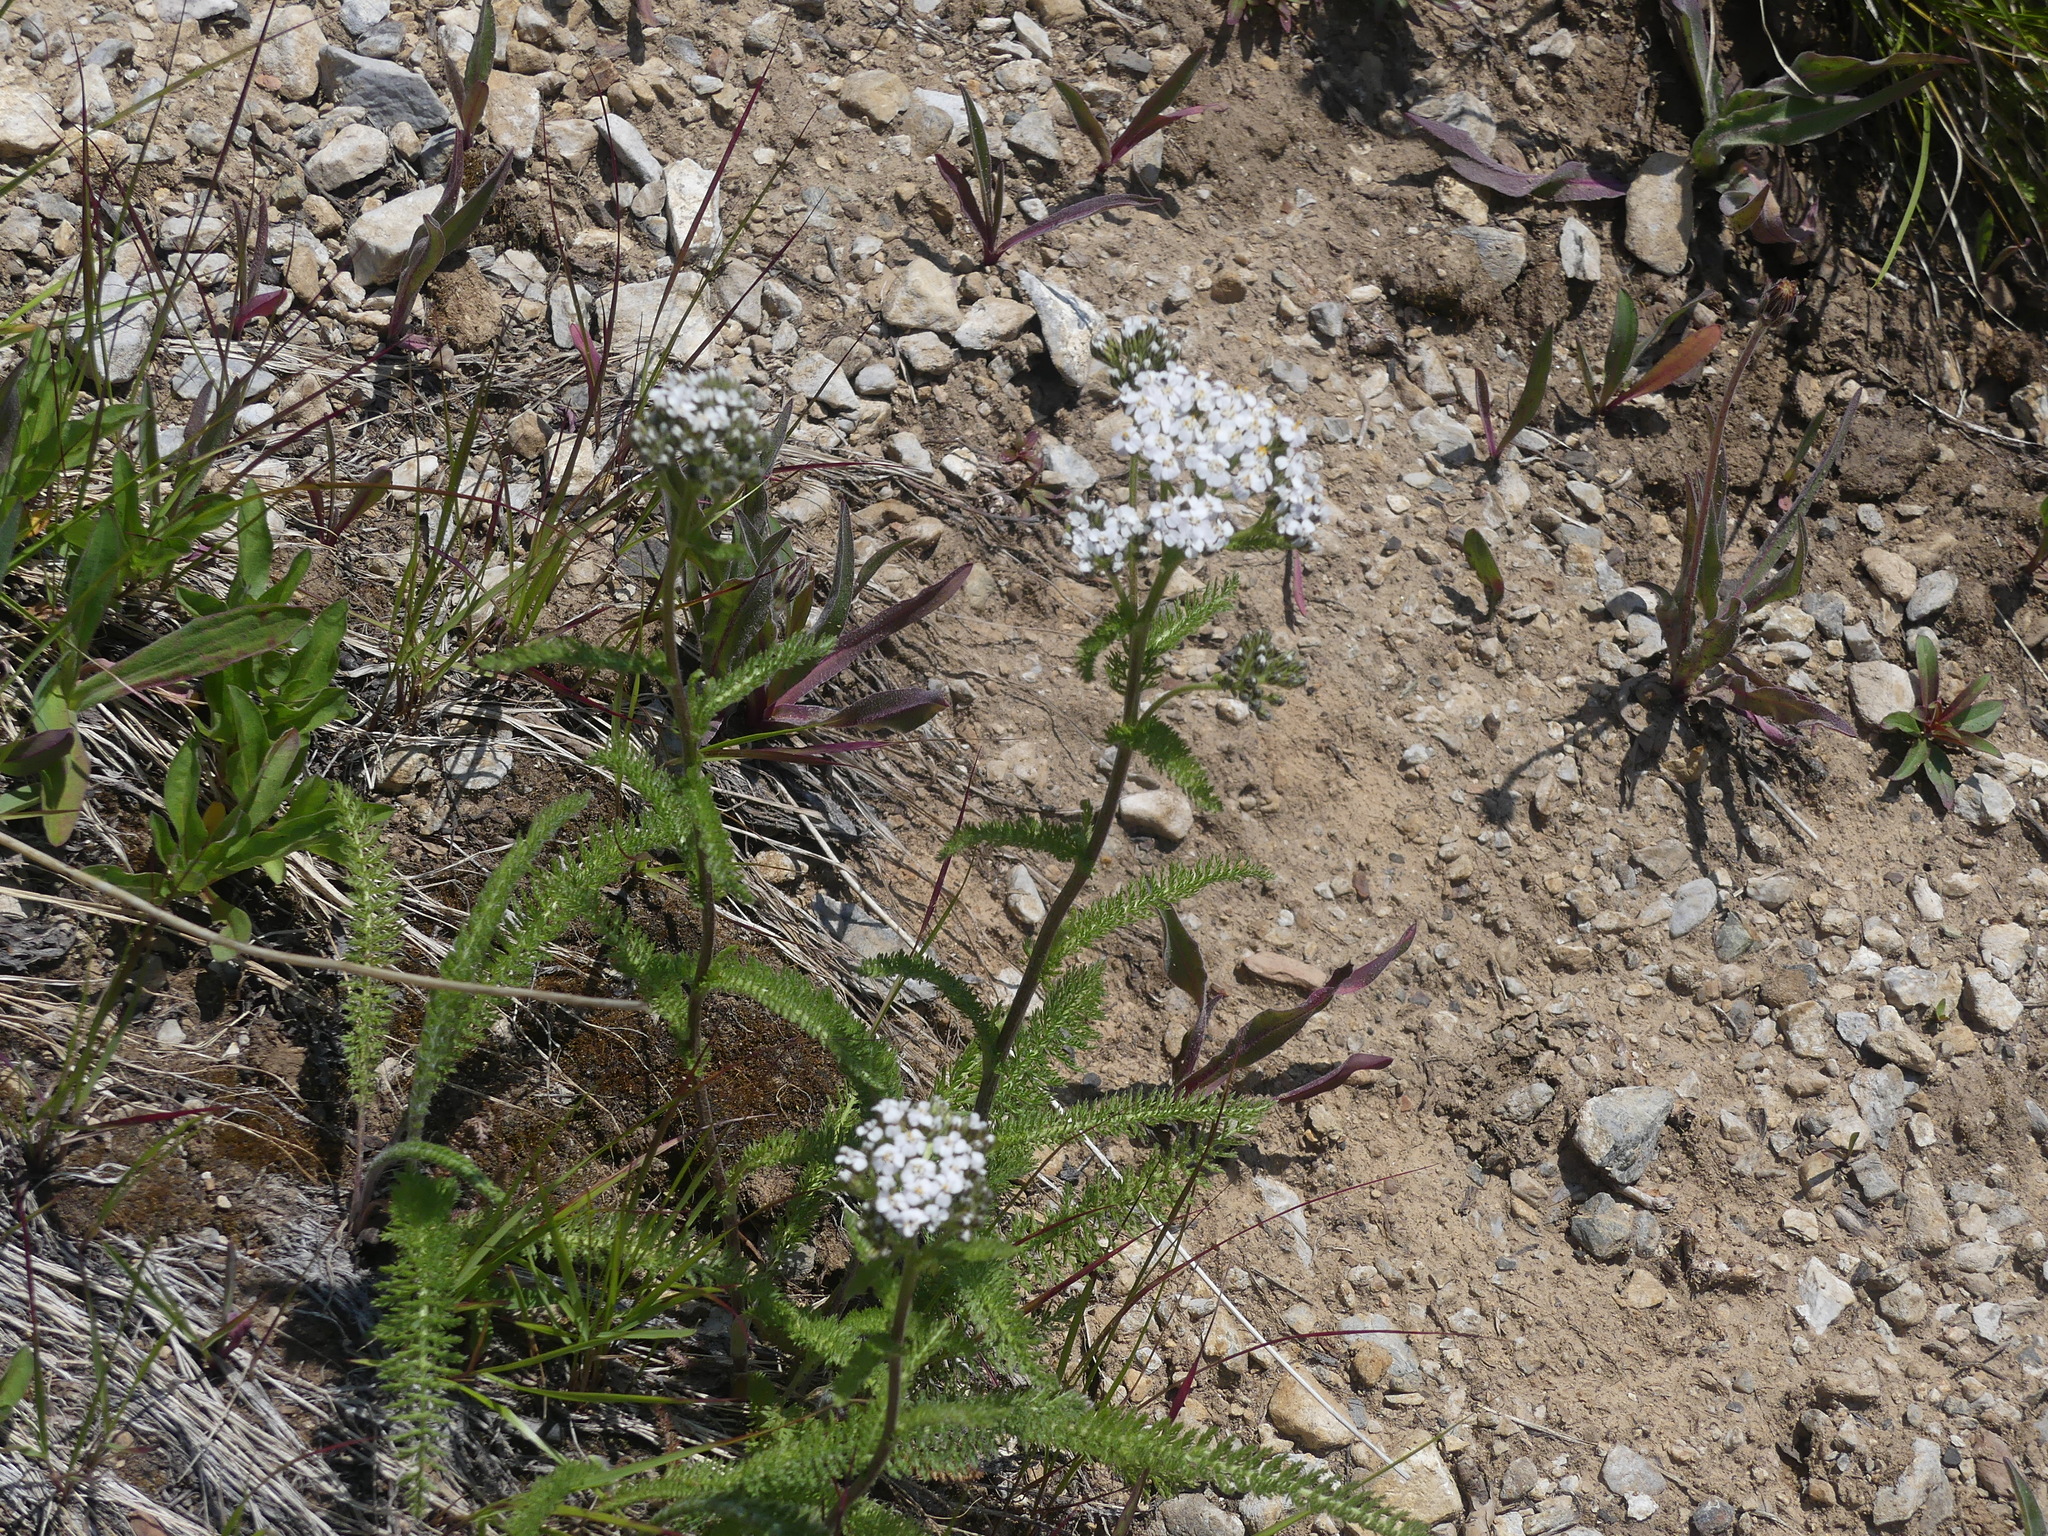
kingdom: Plantae
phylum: Tracheophyta
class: Magnoliopsida
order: Asterales
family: Asteraceae
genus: Achillea
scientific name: Achillea millefolium
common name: Yarrow
